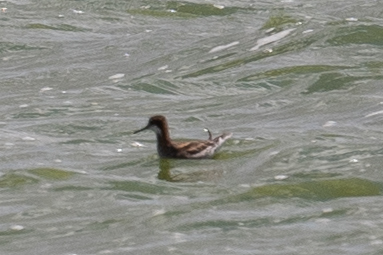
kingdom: Animalia
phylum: Chordata
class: Aves
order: Charadriiformes
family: Scolopacidae
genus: Phalaropus
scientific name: Phalaropus lobatus
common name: Red-necked phalarope
